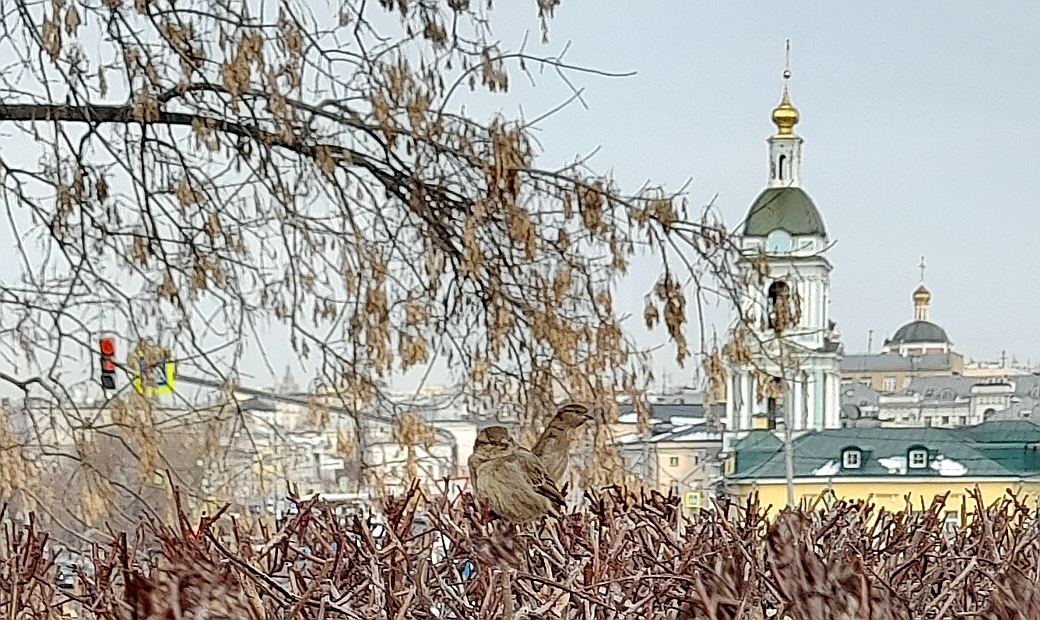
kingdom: Animalia
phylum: Chordata
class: Aves
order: Passeriformes
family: Passeridae
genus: Passer
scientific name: Passer domesticus
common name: House sparrow
